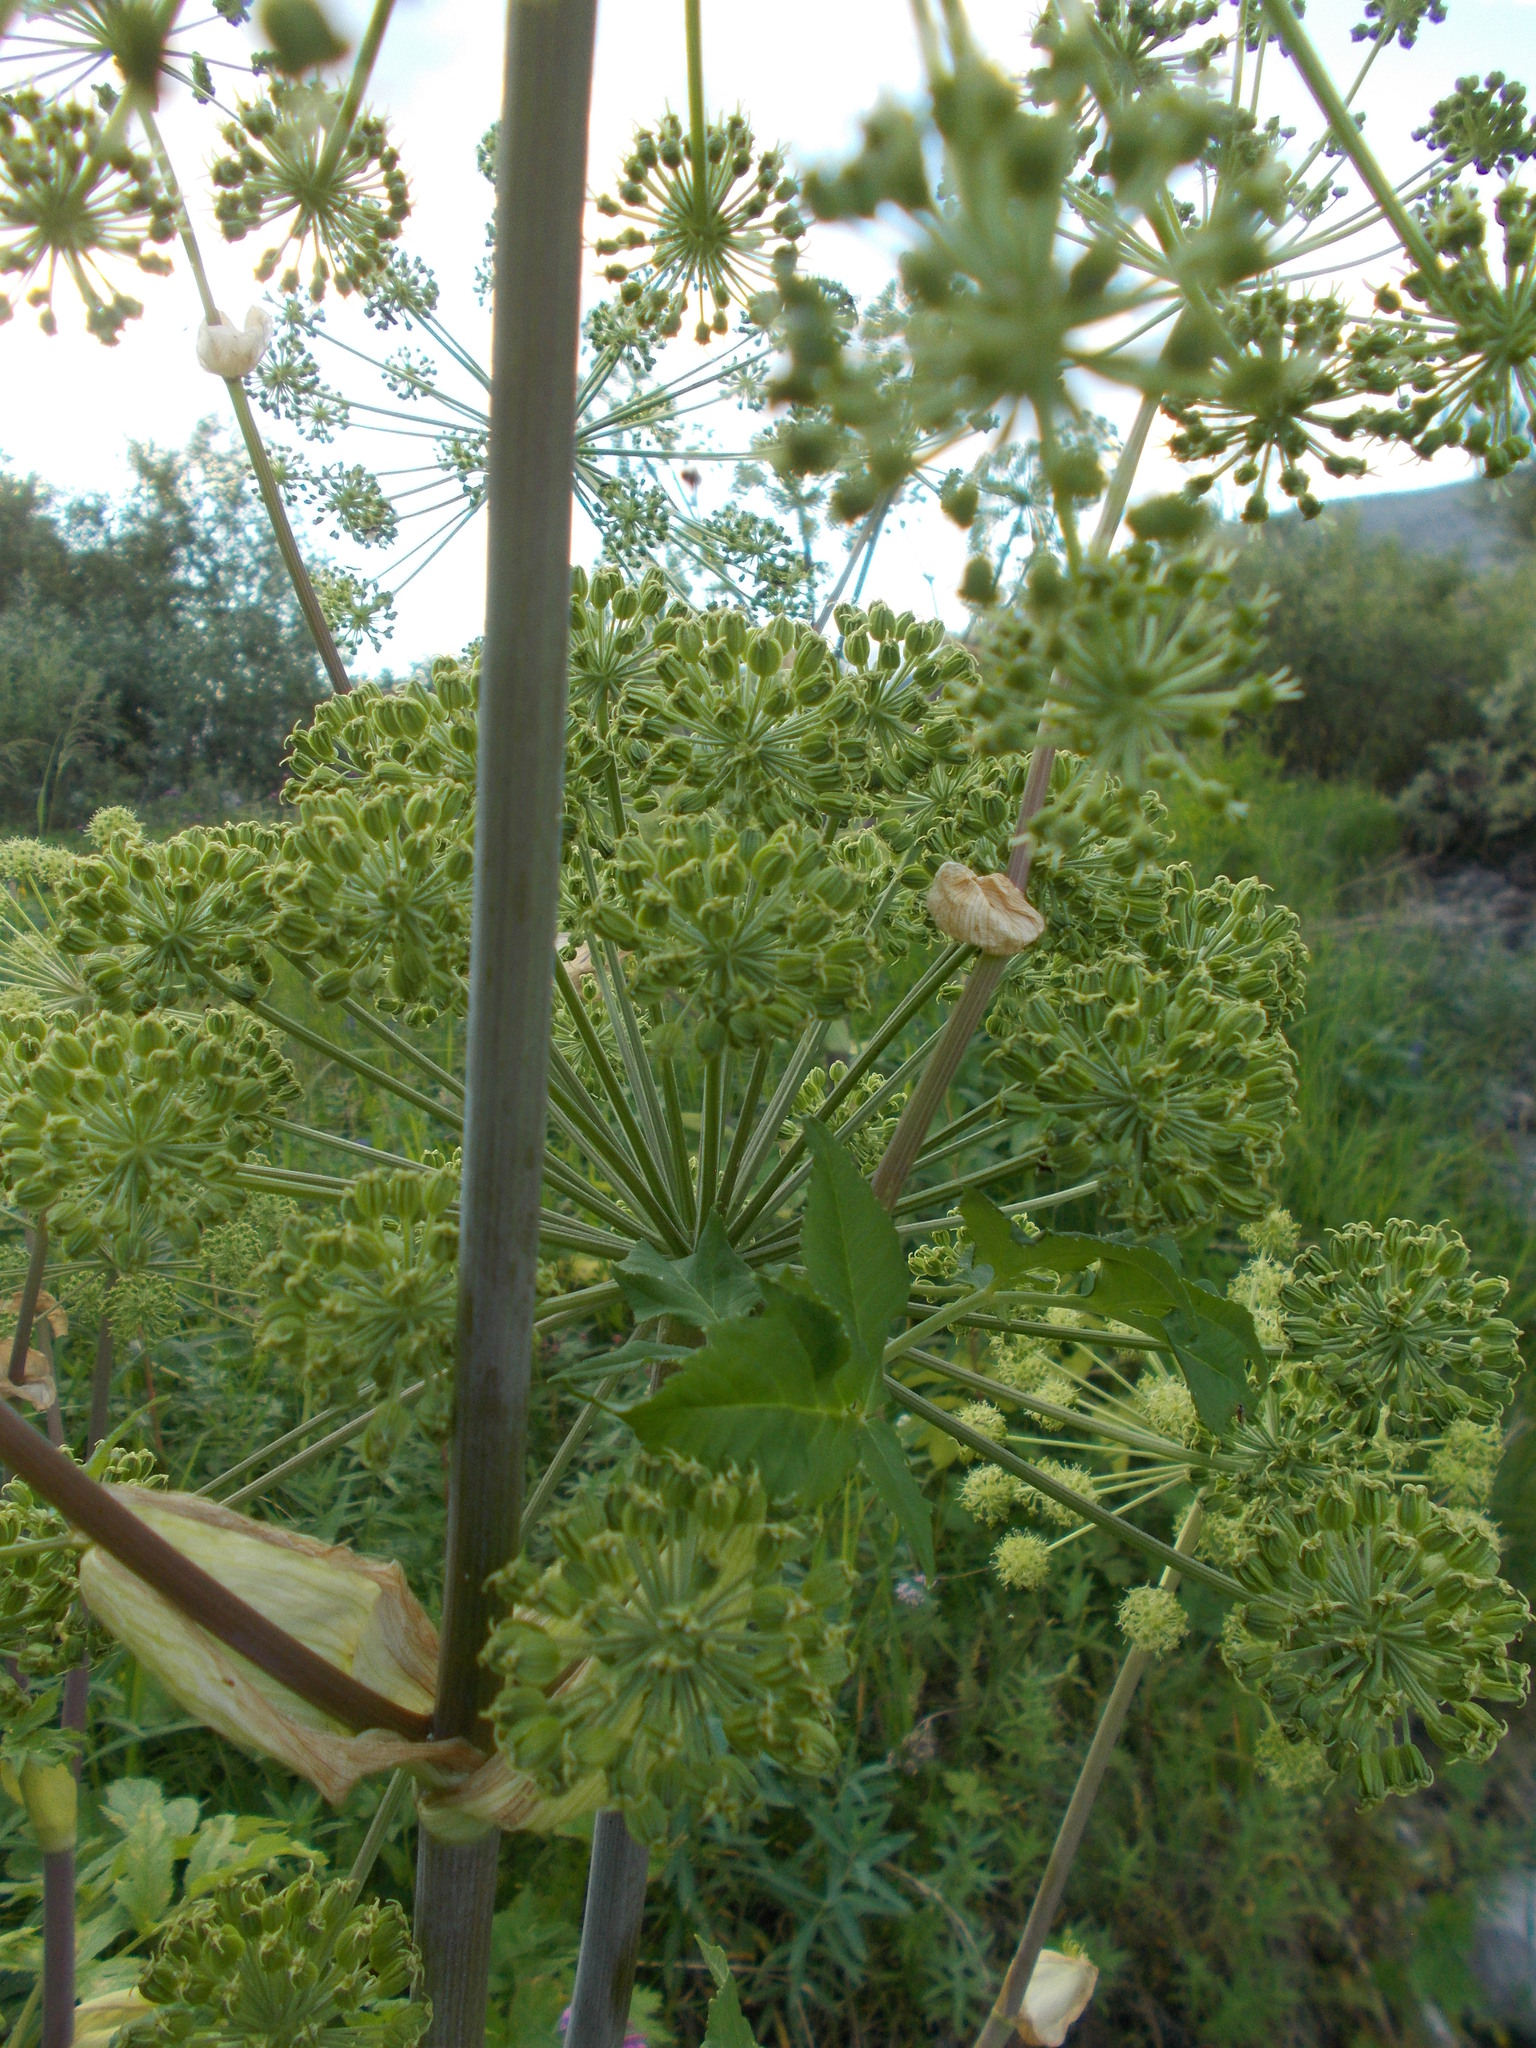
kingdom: Plantae
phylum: Tracheophyta
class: Magnoliopsida
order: Apiales
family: Apiaceae
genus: Angelica
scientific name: Angelica decurrens
